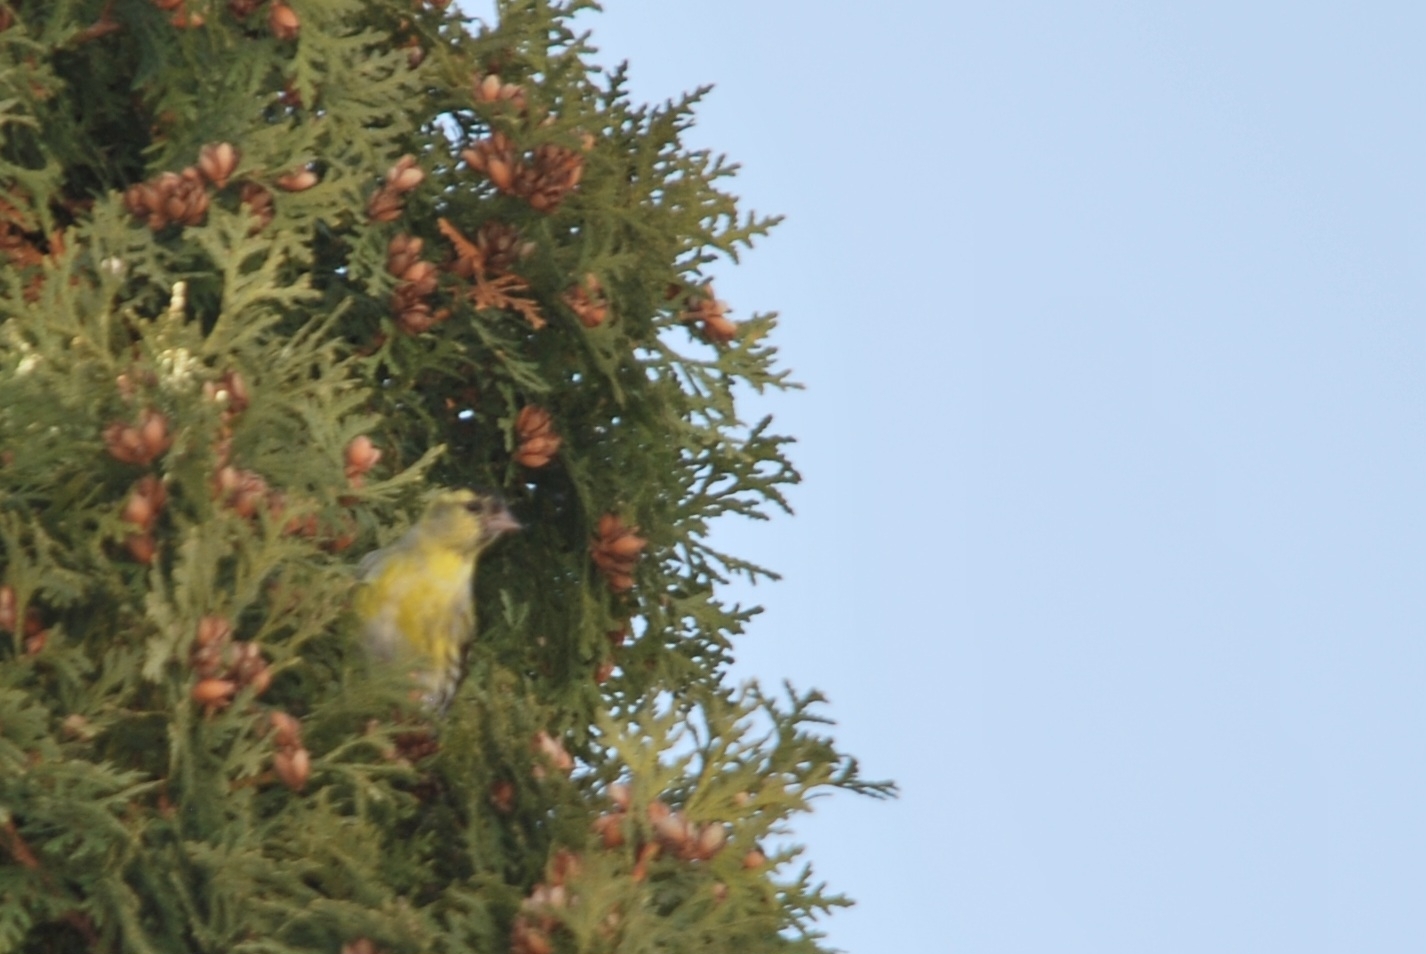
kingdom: Animalia
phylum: Chordata
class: Aves
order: Passeriformes
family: Fringillidae
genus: Spinus
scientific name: Spinus spinus
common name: Eurasian siskin
